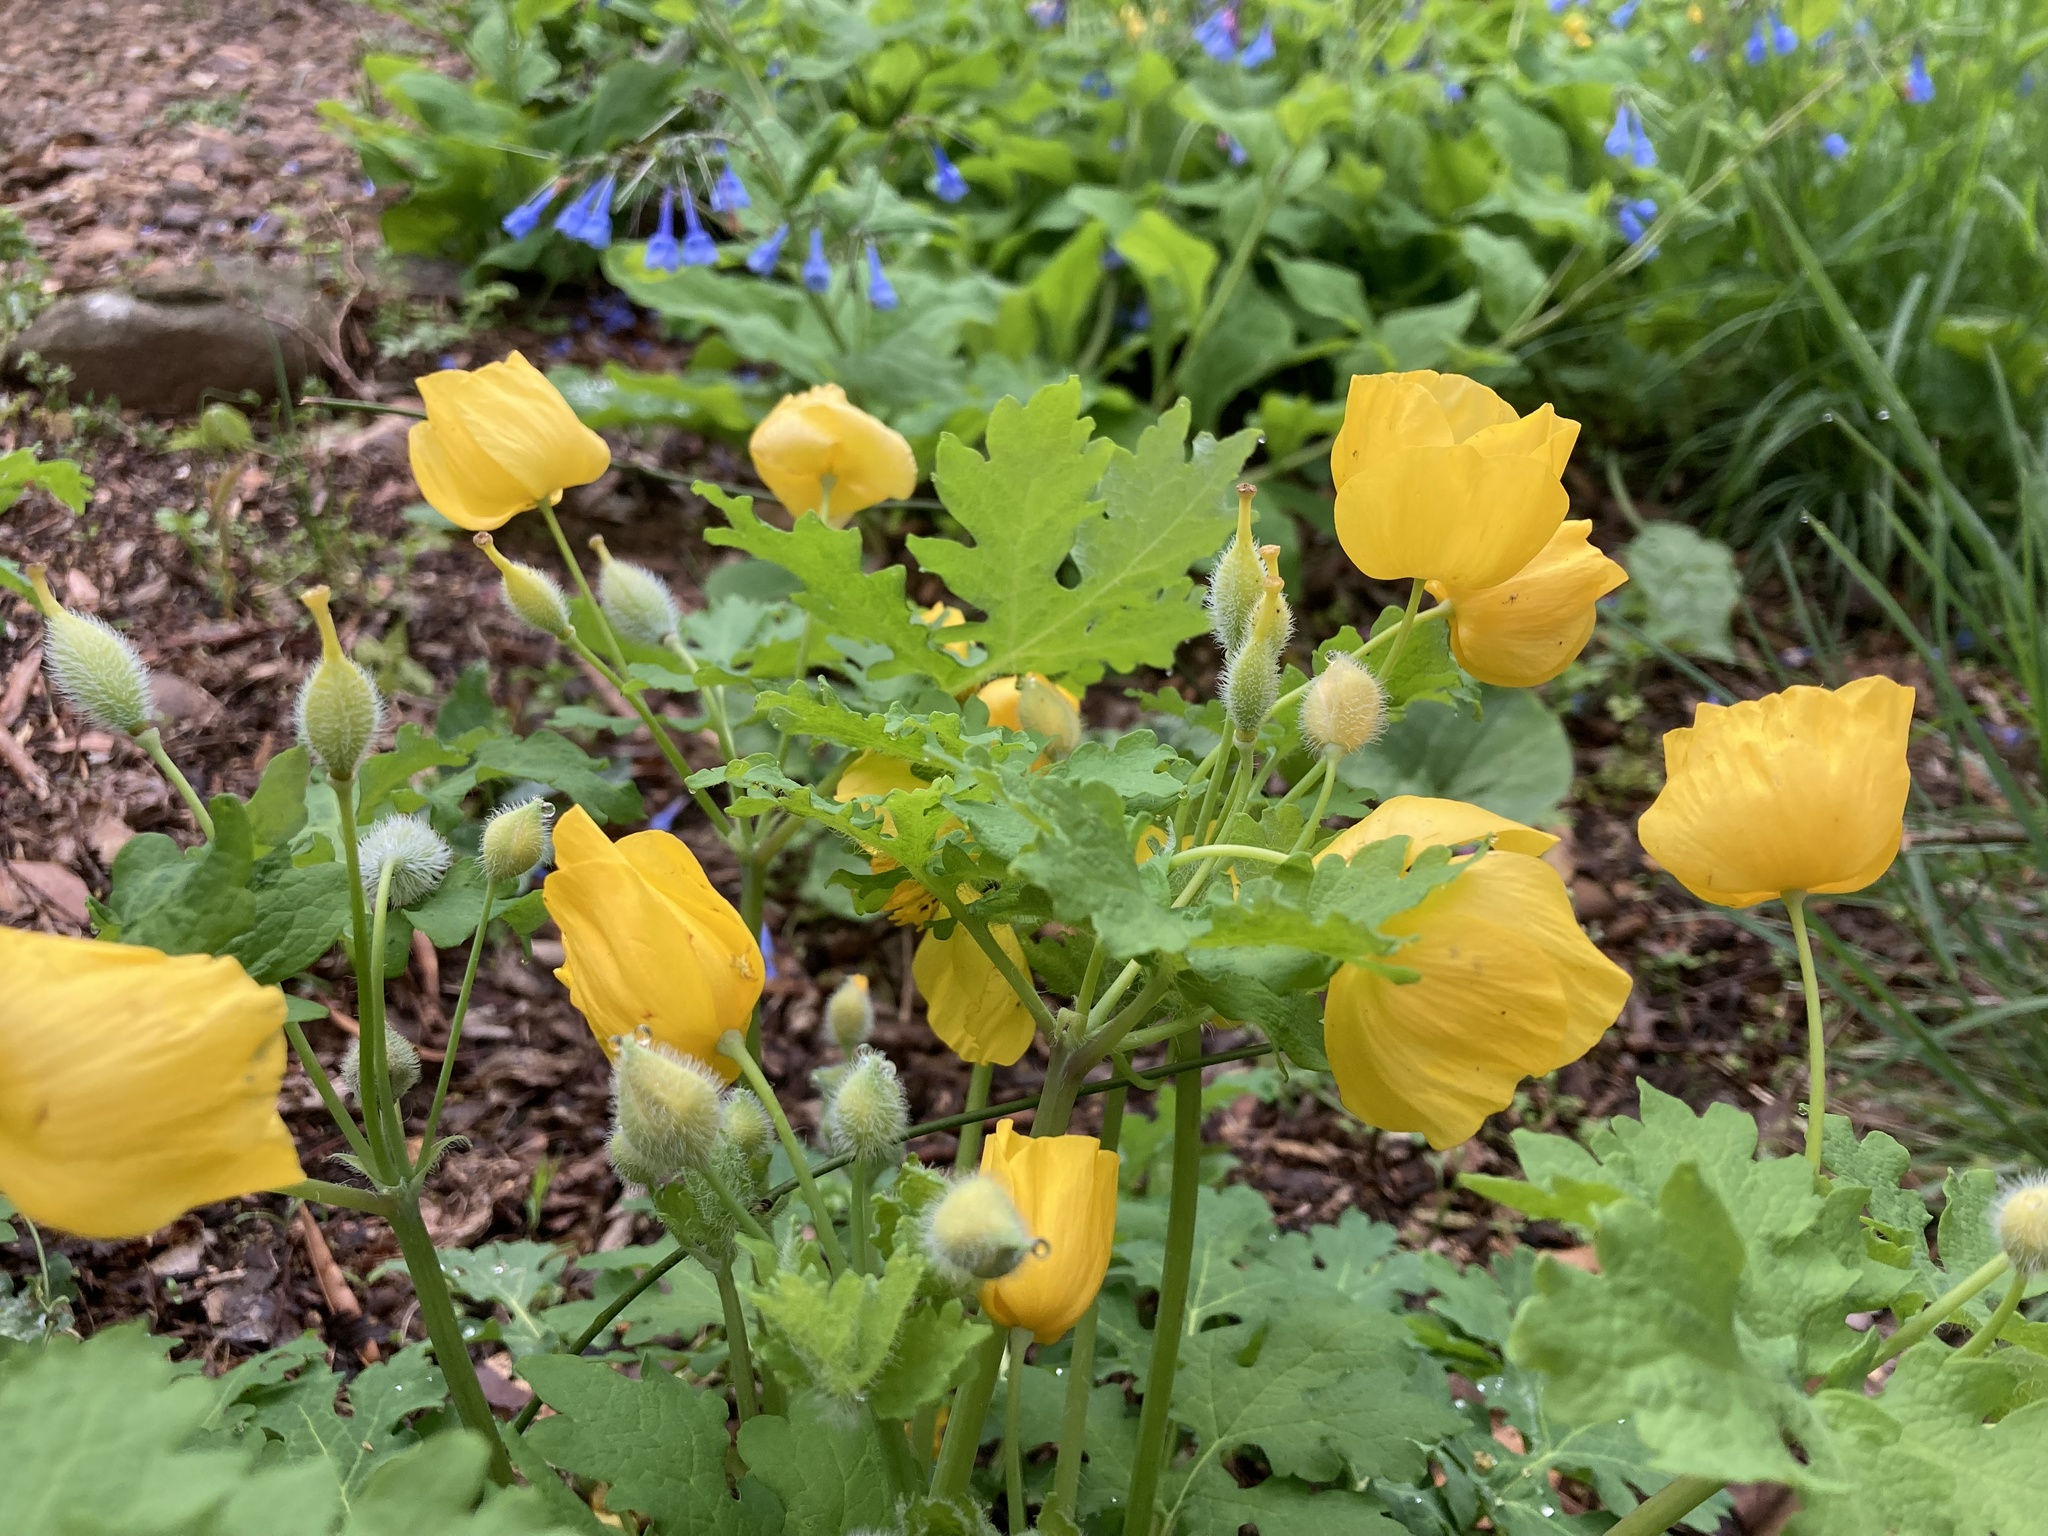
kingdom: Plantae
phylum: Tracheophyta
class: Magnoliopsida
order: Ranunculales
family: Papaveraceae
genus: Stylophorum
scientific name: Stylophorum diphyllum
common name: Celandine poppy
